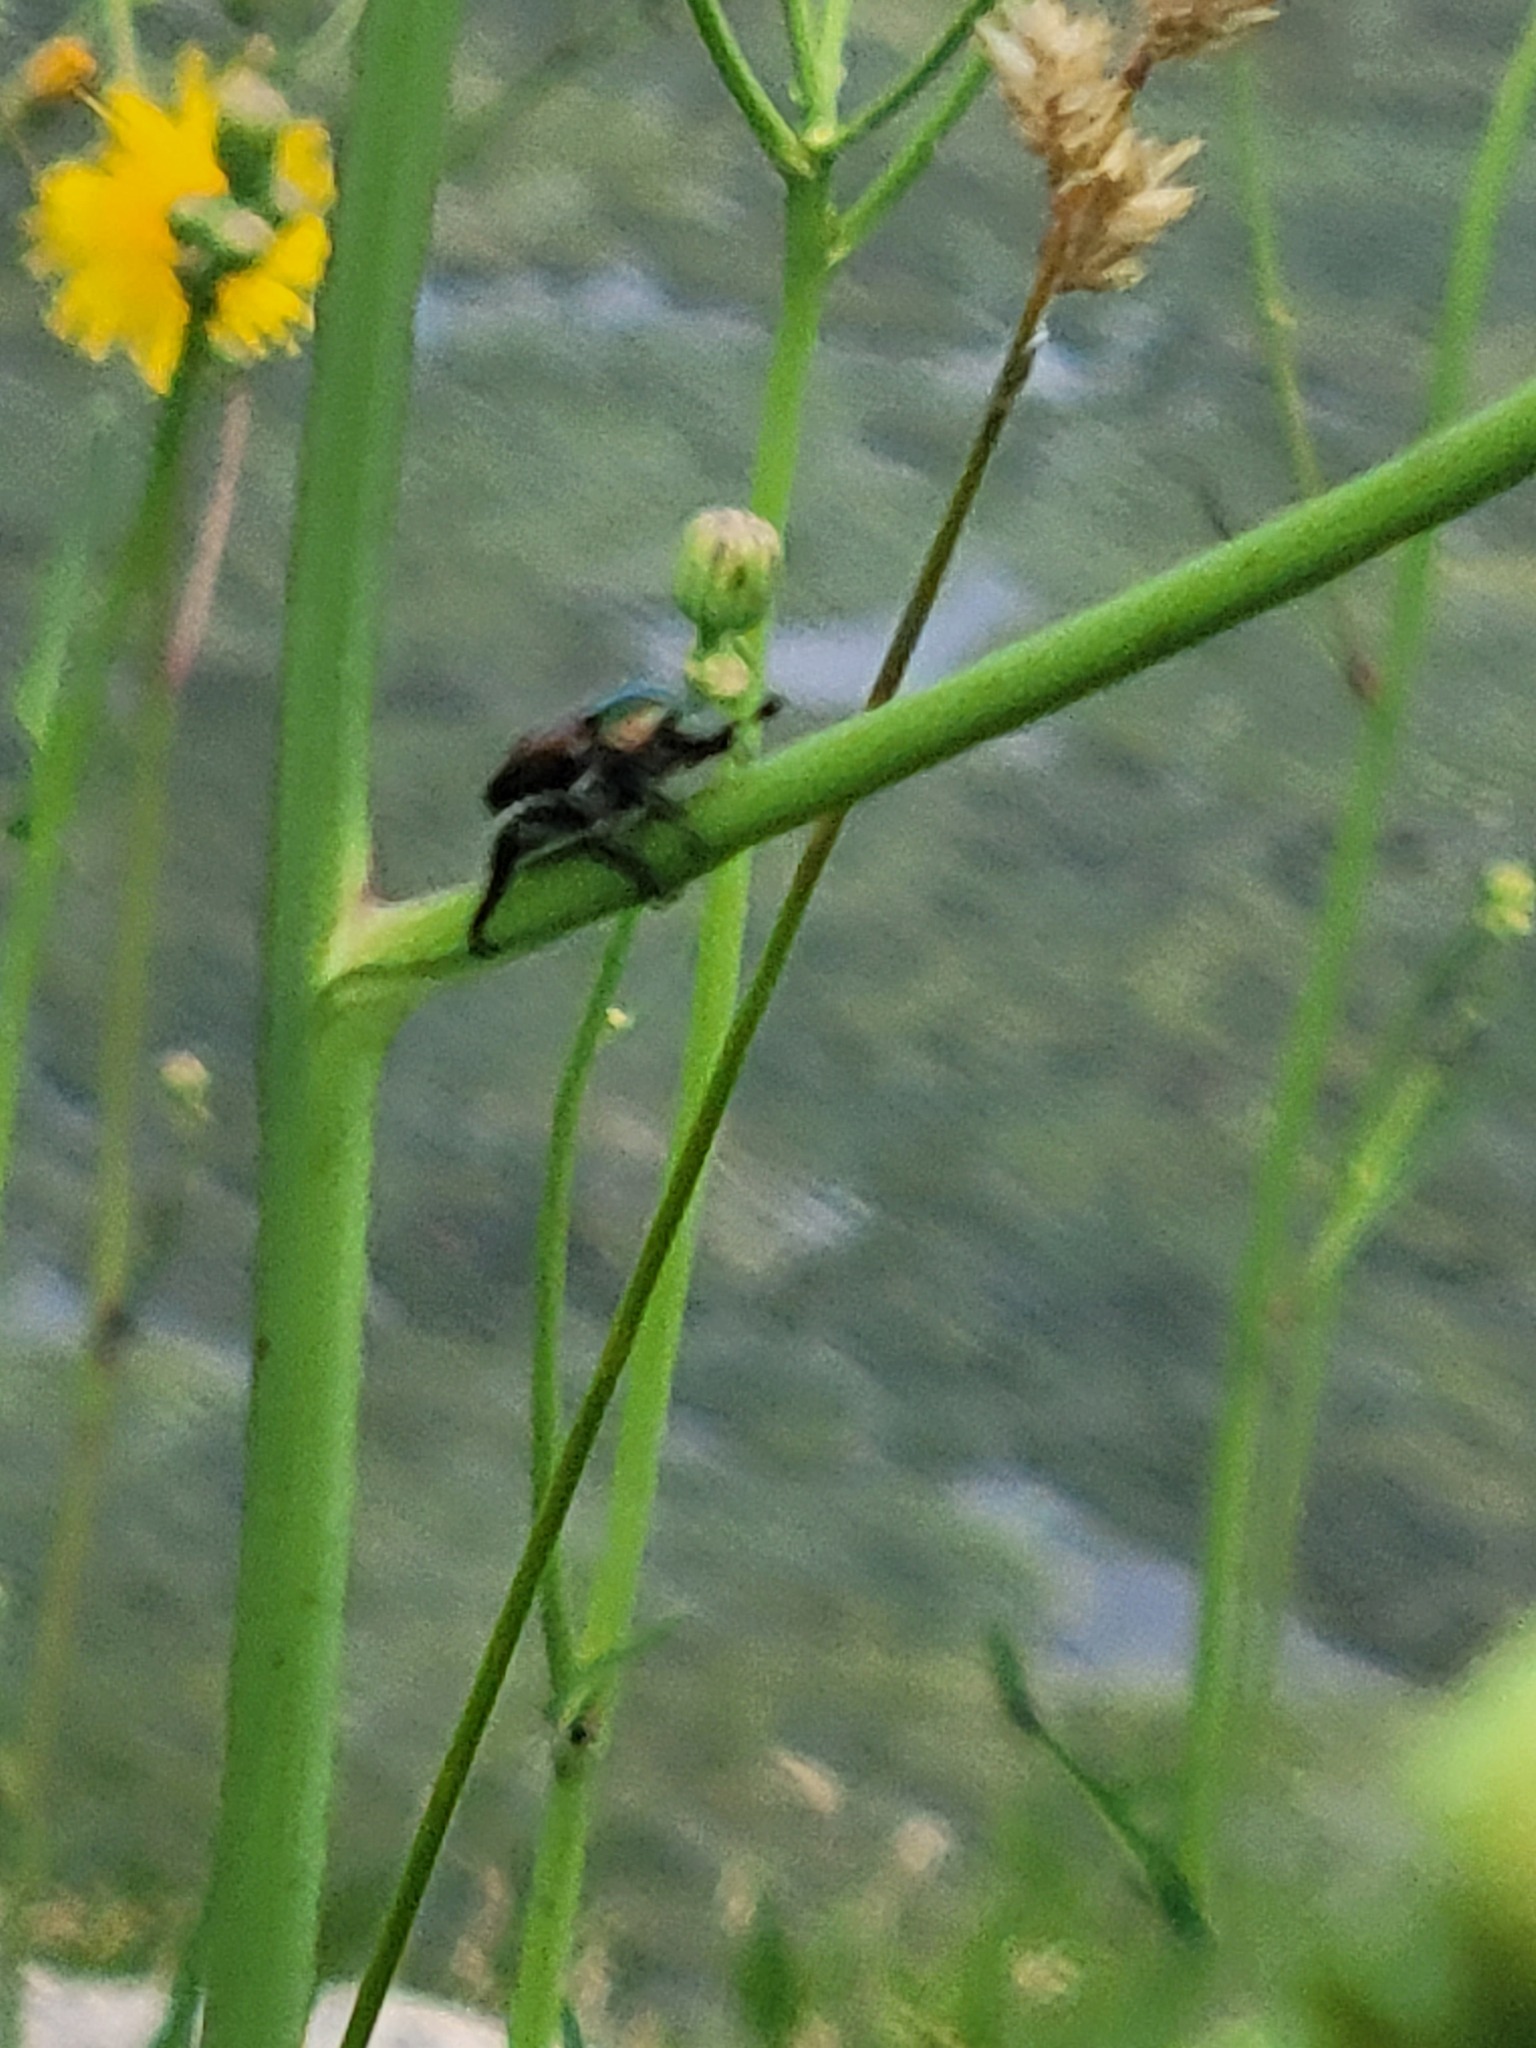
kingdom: Animalia
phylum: Arthropoda
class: Insecta
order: Coleoptera
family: Scarabaeidae
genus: Popillia
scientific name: Popillia japonica
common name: Japanese beetle
